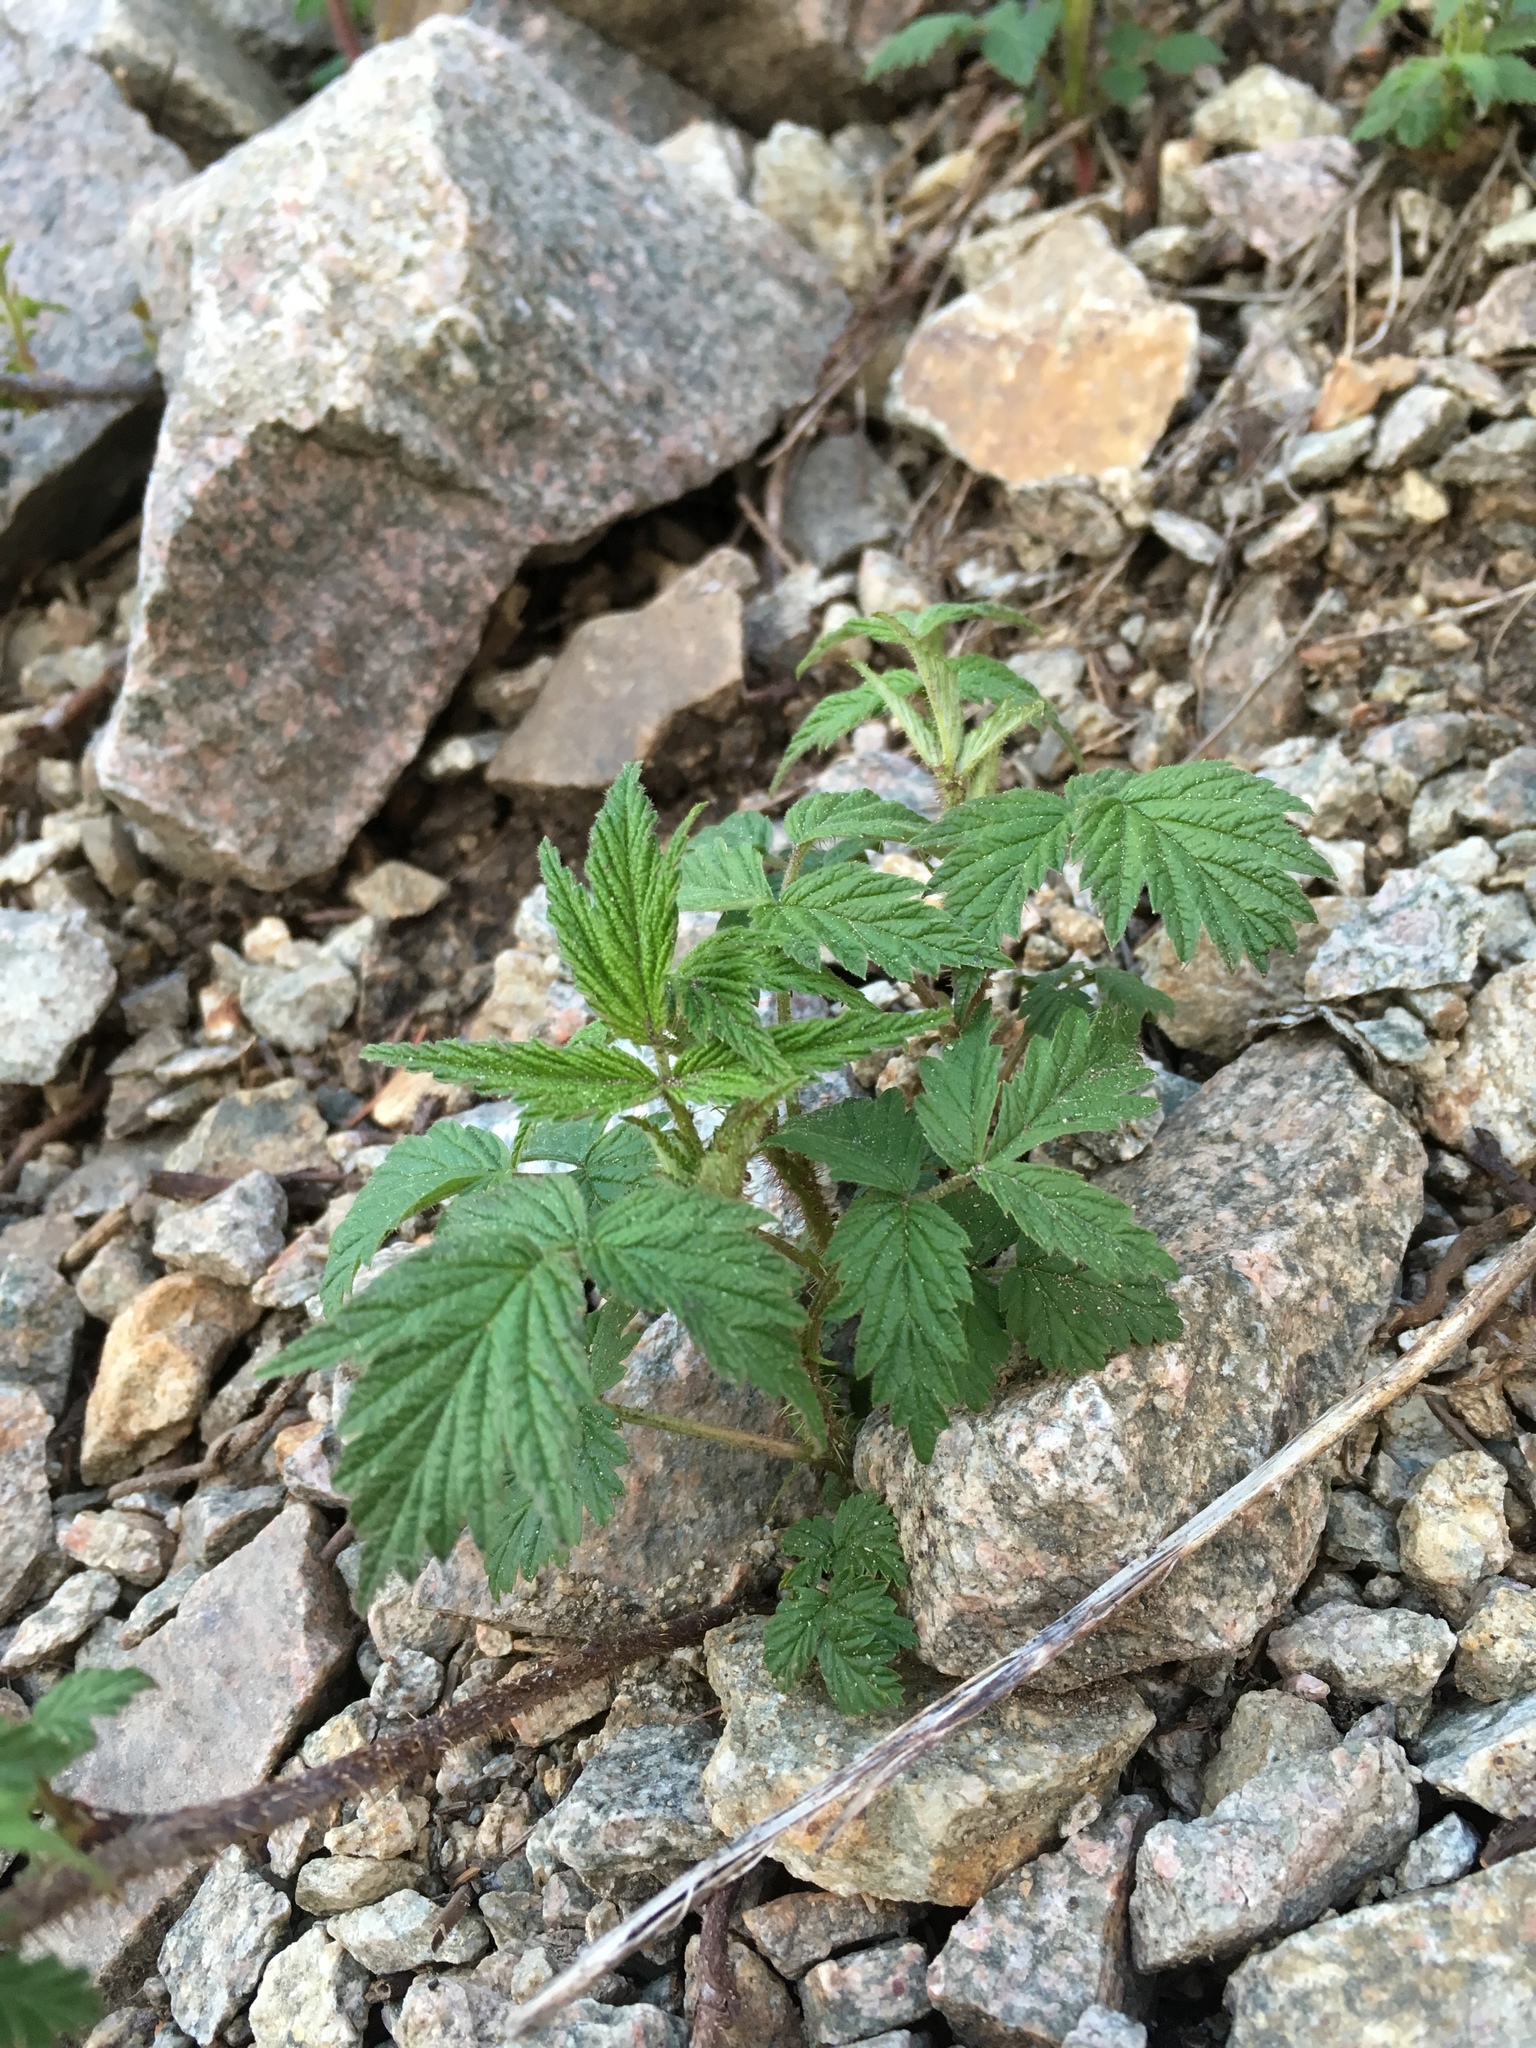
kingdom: Plantae
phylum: Tracheophyta
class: Magnoliopsida
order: Rosales
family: Rosaceae
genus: Rubus
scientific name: Rubus idaeus
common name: Raspberry
